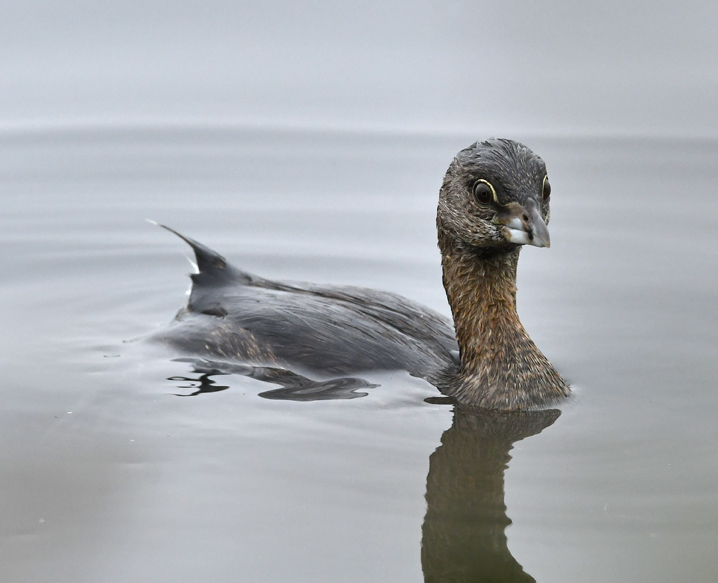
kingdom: Animalia
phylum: Chordata
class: Aves
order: Podicipediformes
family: Podicipedidae
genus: Podilymbus
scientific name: Podilymbus podiceps
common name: Pied-billed grebe
